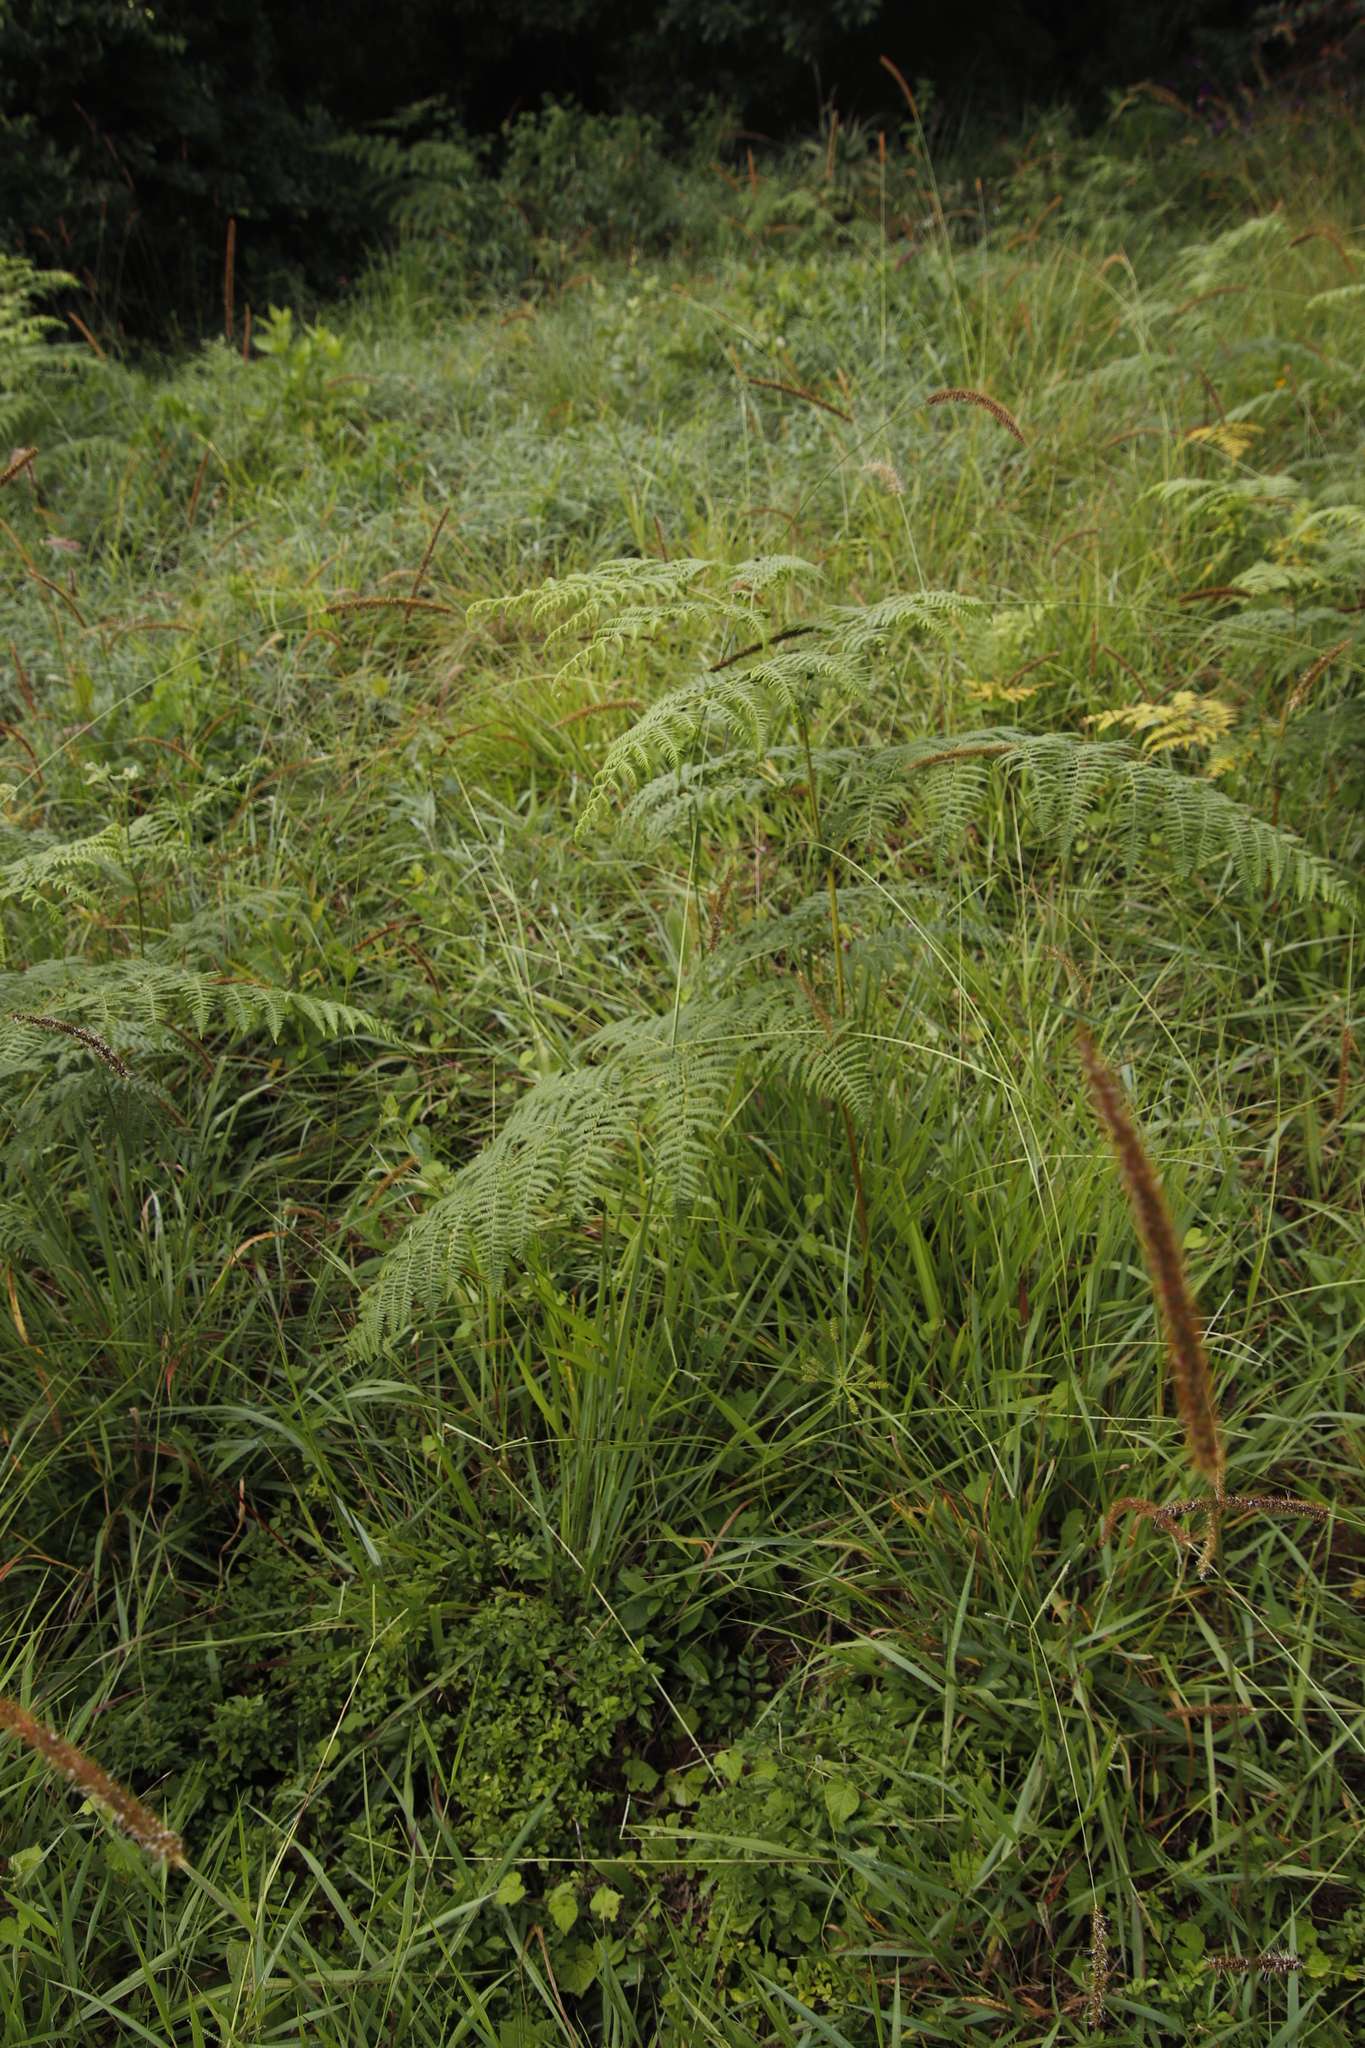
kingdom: Plantae
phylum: Tracheophyta
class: Polypodiopsida
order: Polypodiales
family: Dennstaedtiaceae
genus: Pteridium
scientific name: Pteridium aquilinum
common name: Bracken
